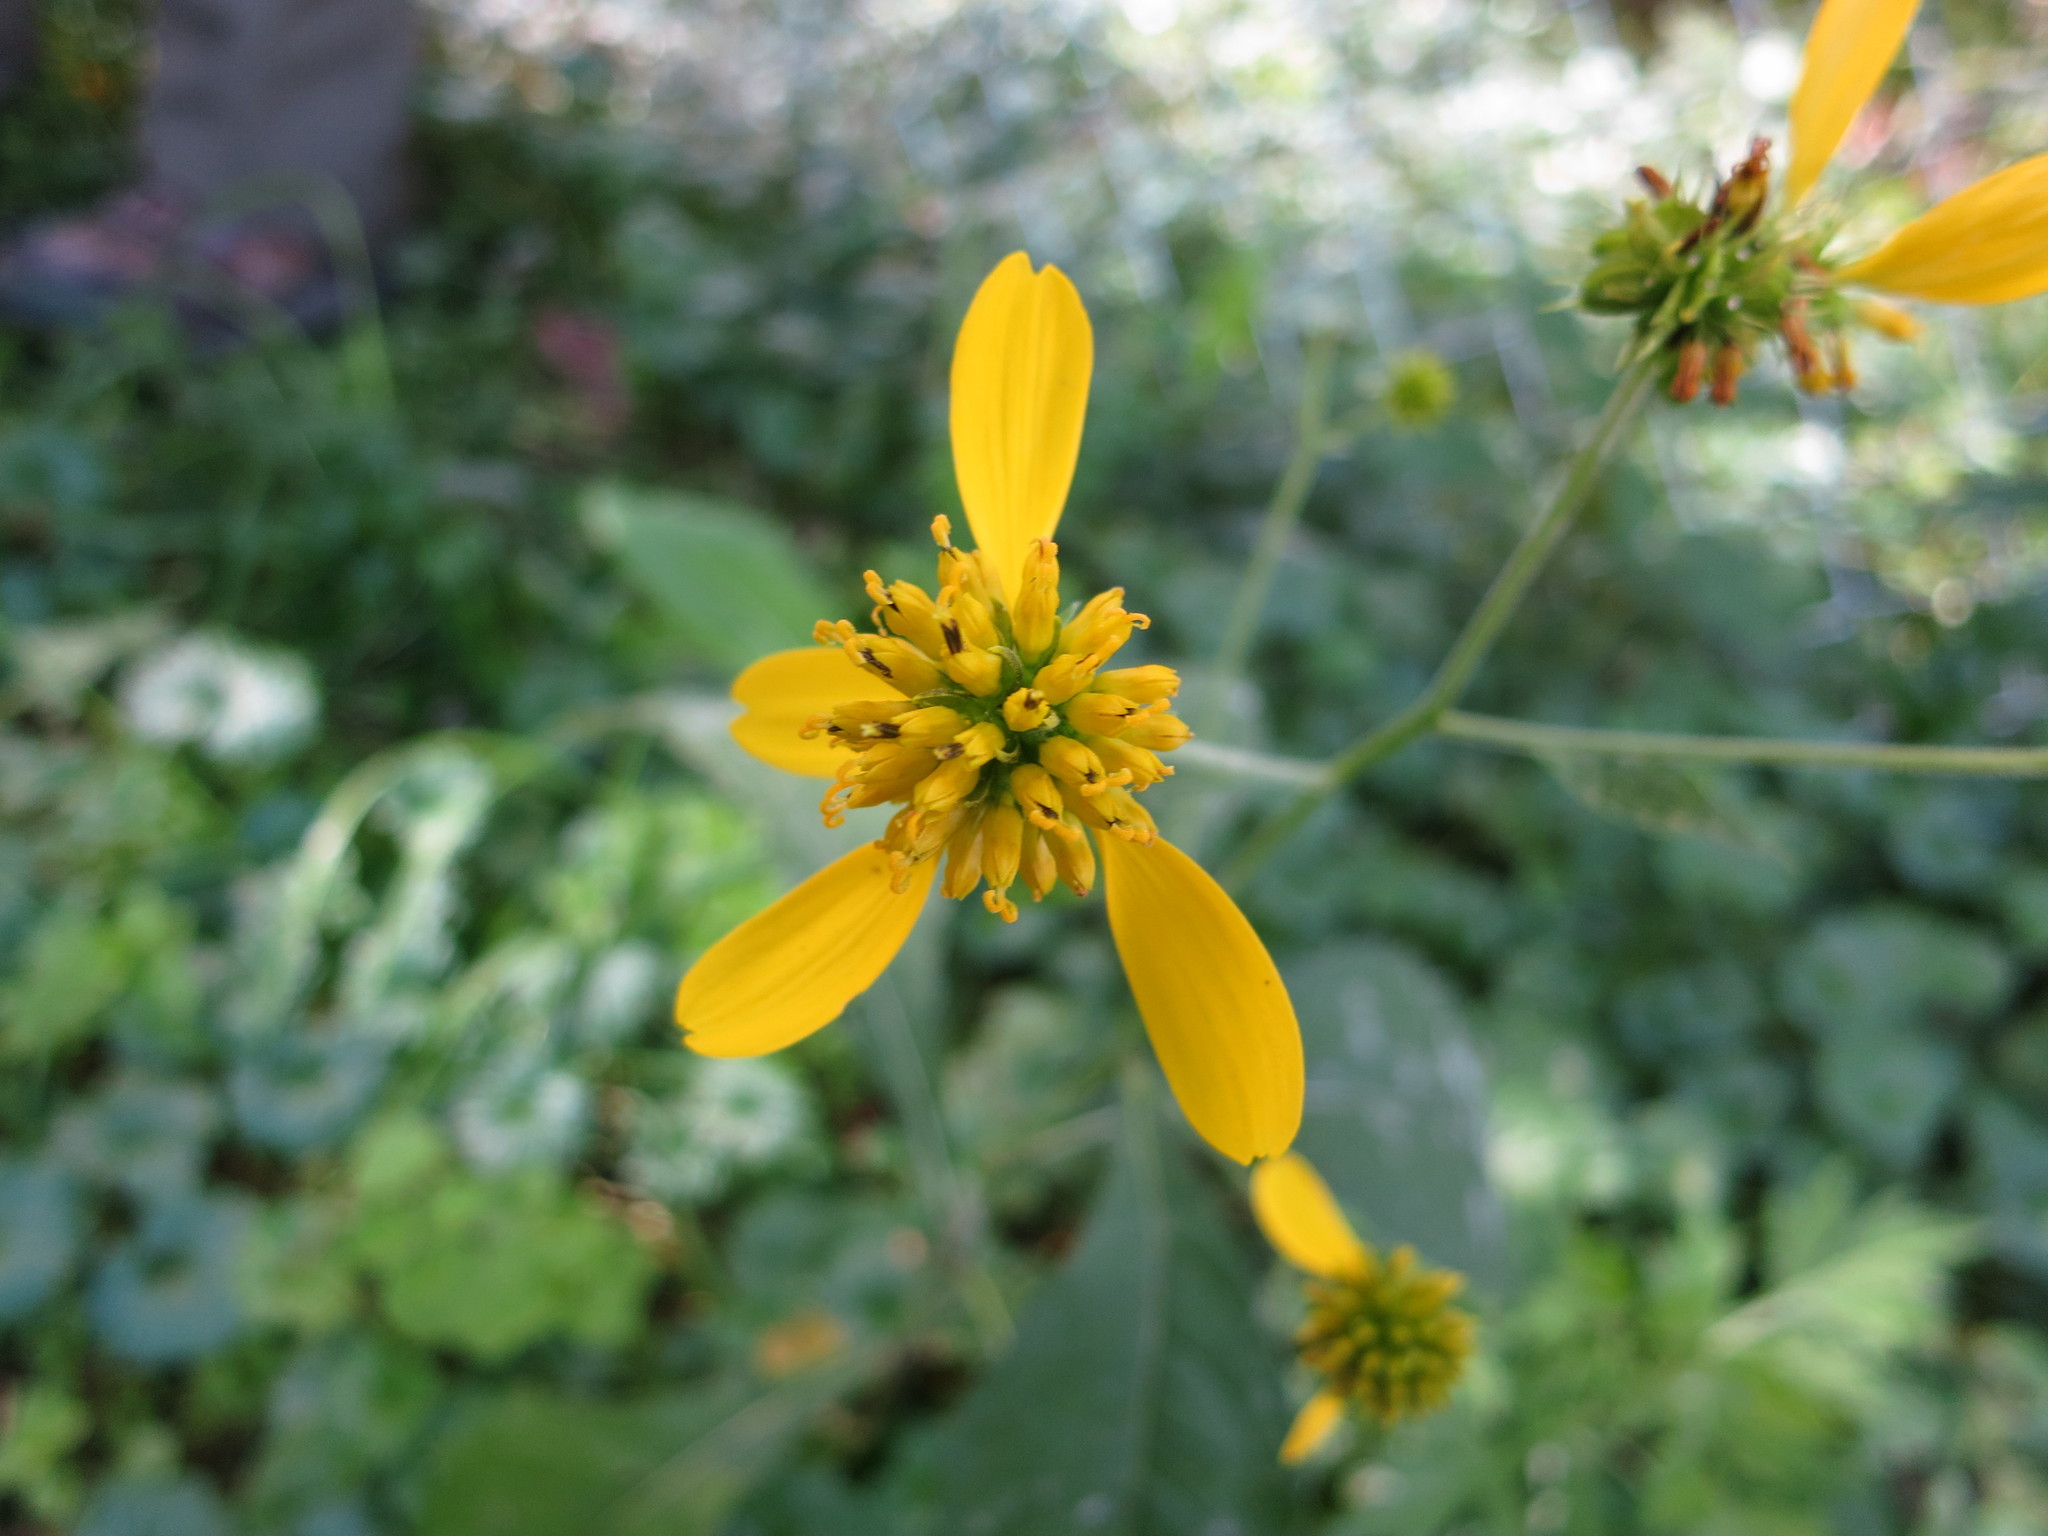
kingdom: Plantae
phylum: Tracheophyta
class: Magnoliopsida
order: Asterales
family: Asteraceae
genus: Verbesina
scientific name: Verbesina alternifolia
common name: Wingstem
